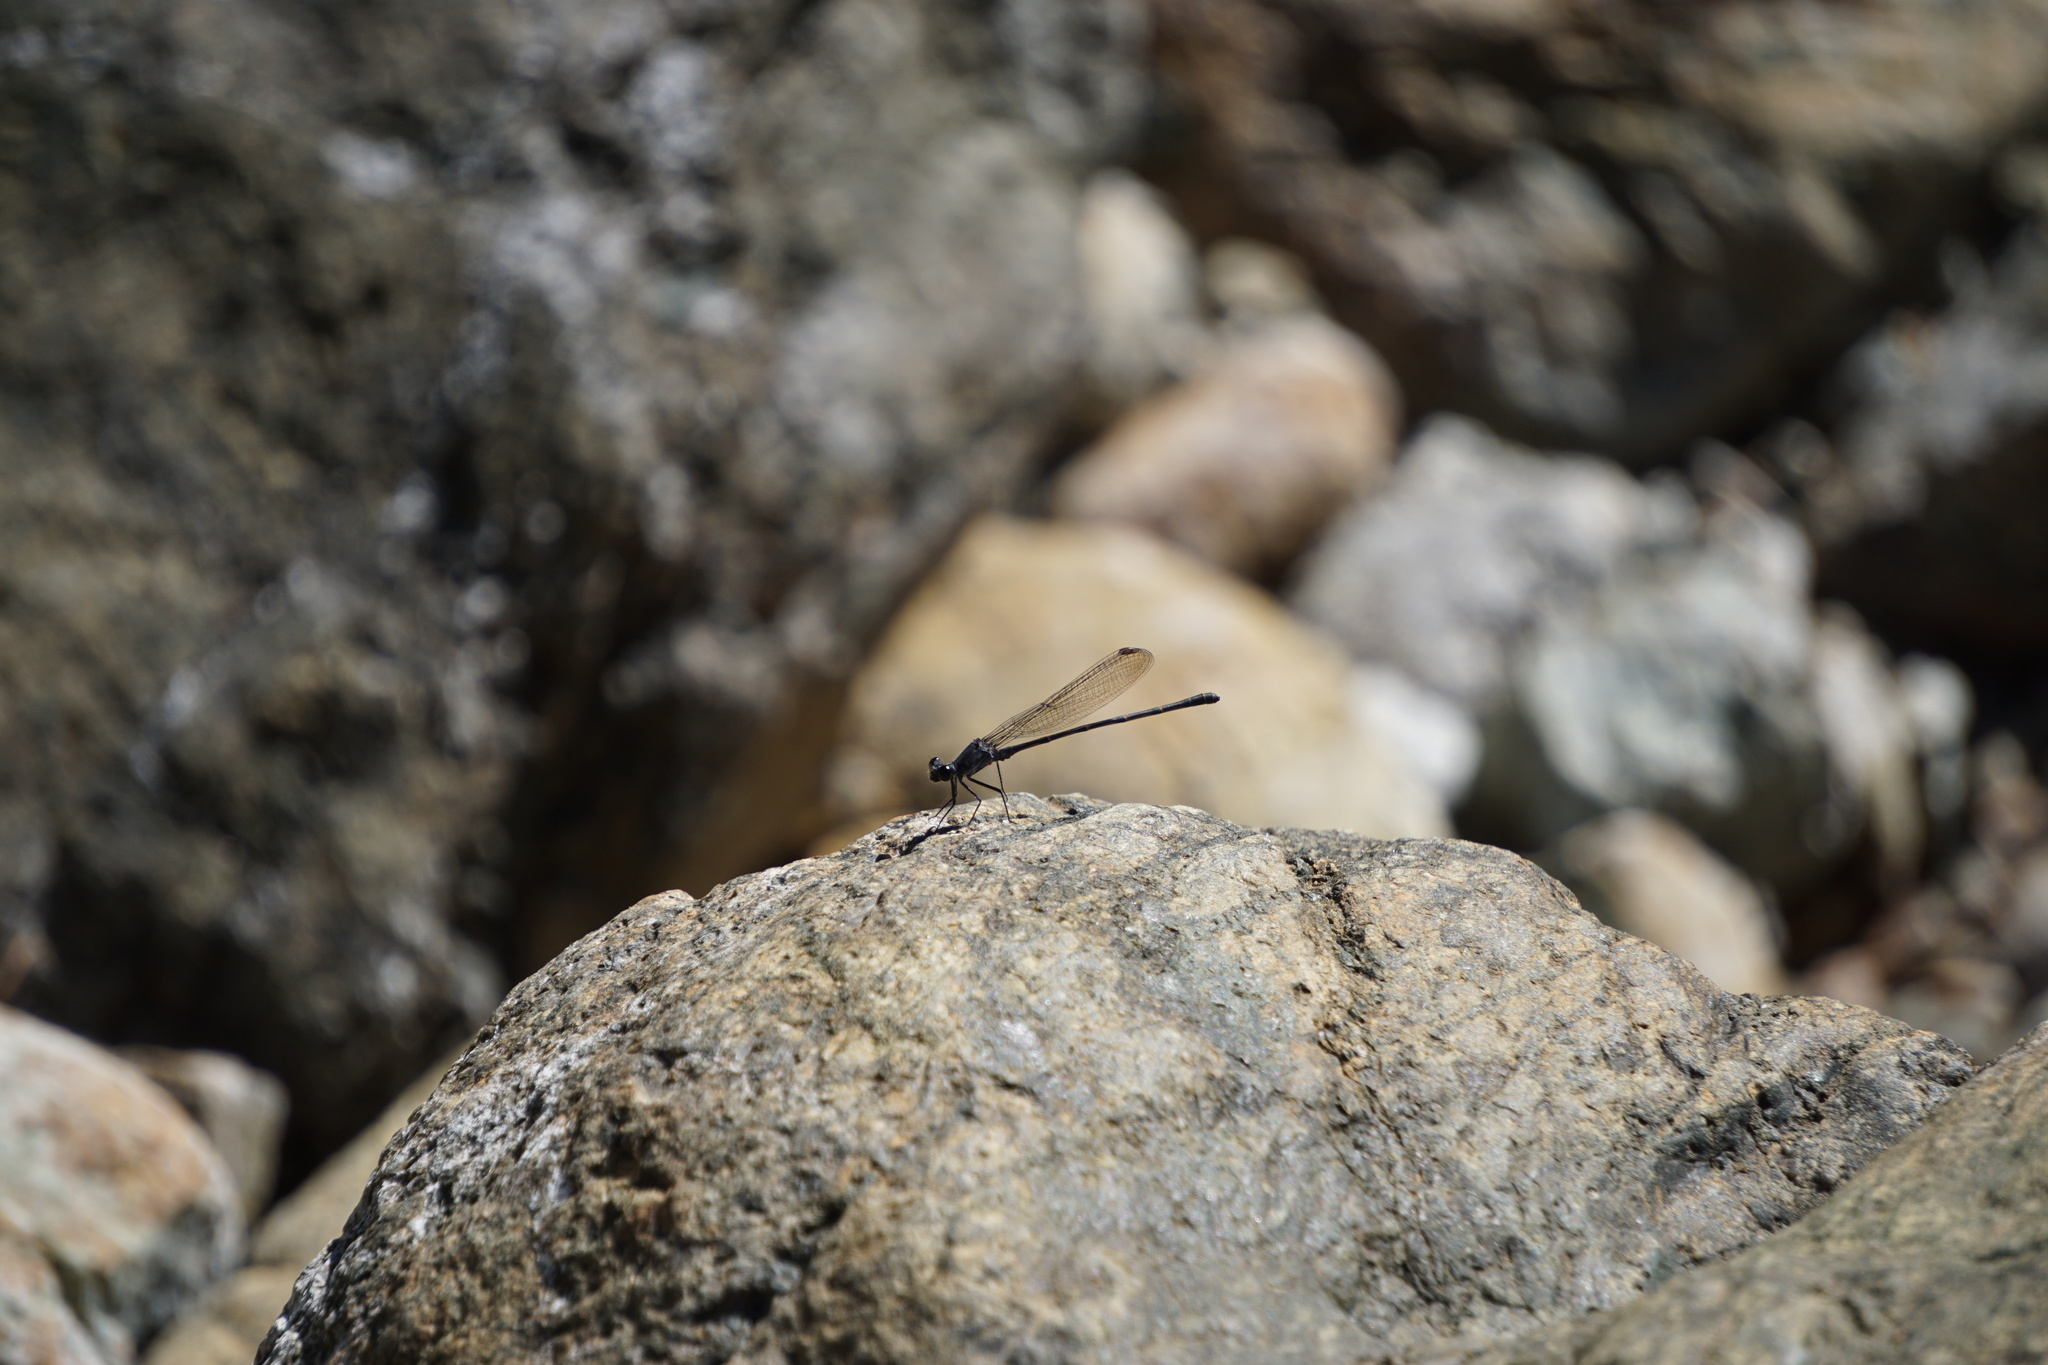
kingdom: Animalia
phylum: Arthropoda
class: Insecta
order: Odonata
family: Coenagrionidae
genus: Argia
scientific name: Argia lugens
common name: Sooty dancer
